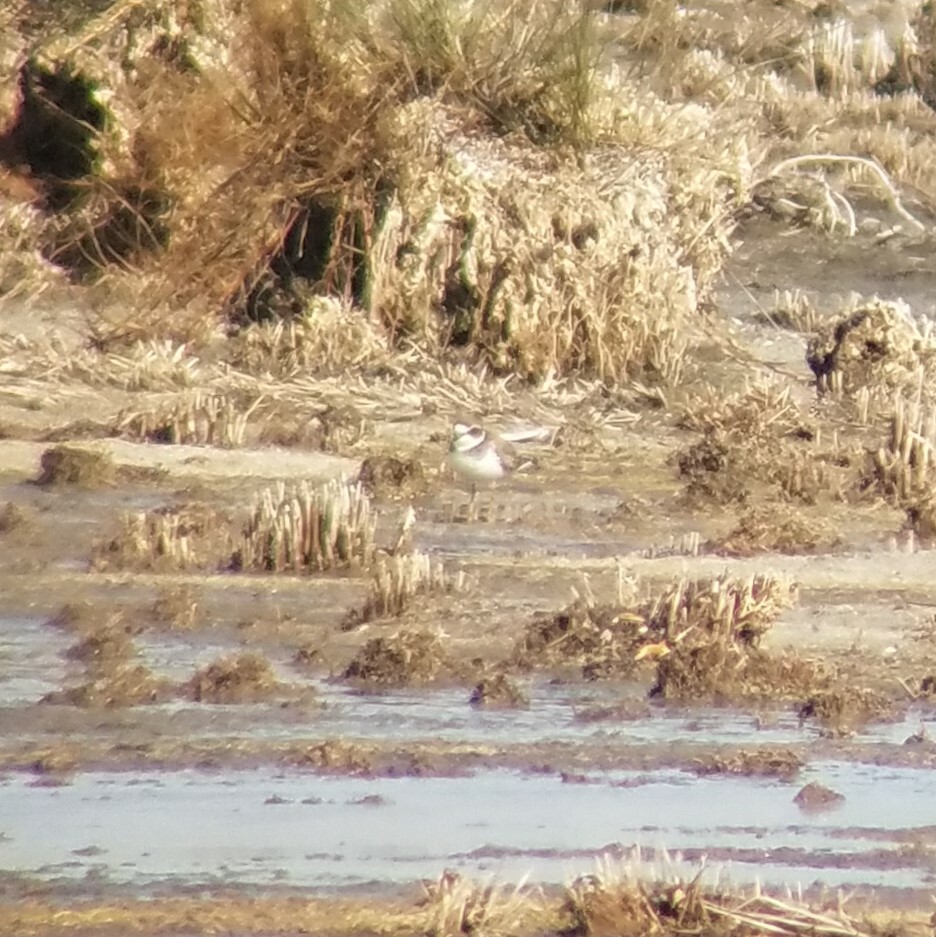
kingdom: Animalia
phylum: Chordata
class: Aves
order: Charadriiformes
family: Charadriidae
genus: Charadrius
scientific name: Charadrius semipalmatus
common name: Semipalmated plover
